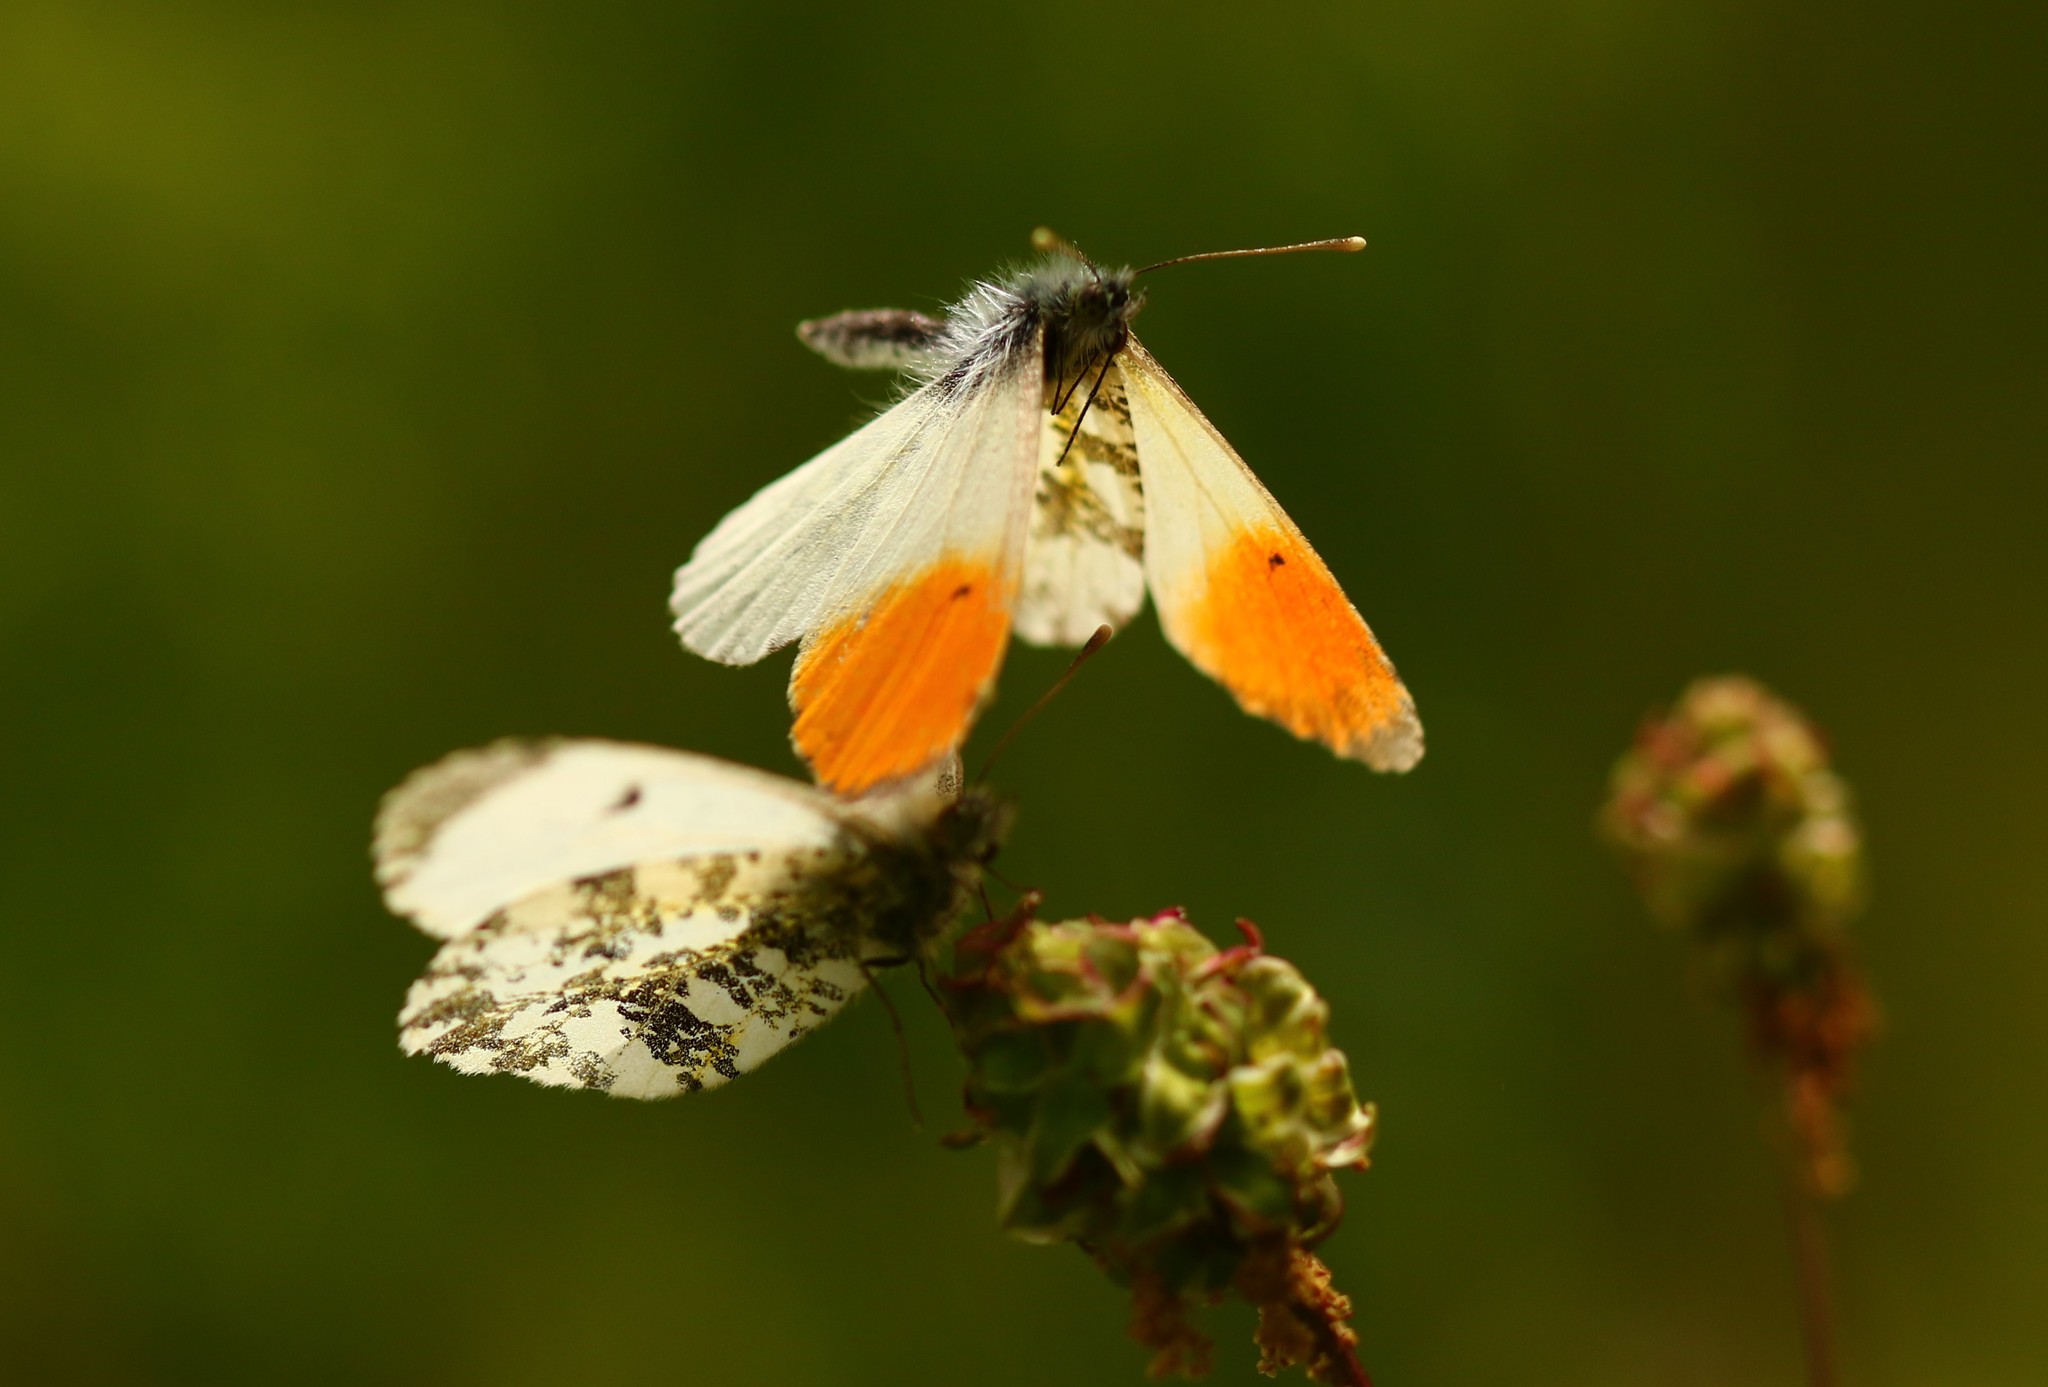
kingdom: Animalia
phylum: Arthropoda
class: Insecta
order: Lepidoptera
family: Pieridae
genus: Anthocharis
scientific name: Anthocharis cardamines
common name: Orange-tip
